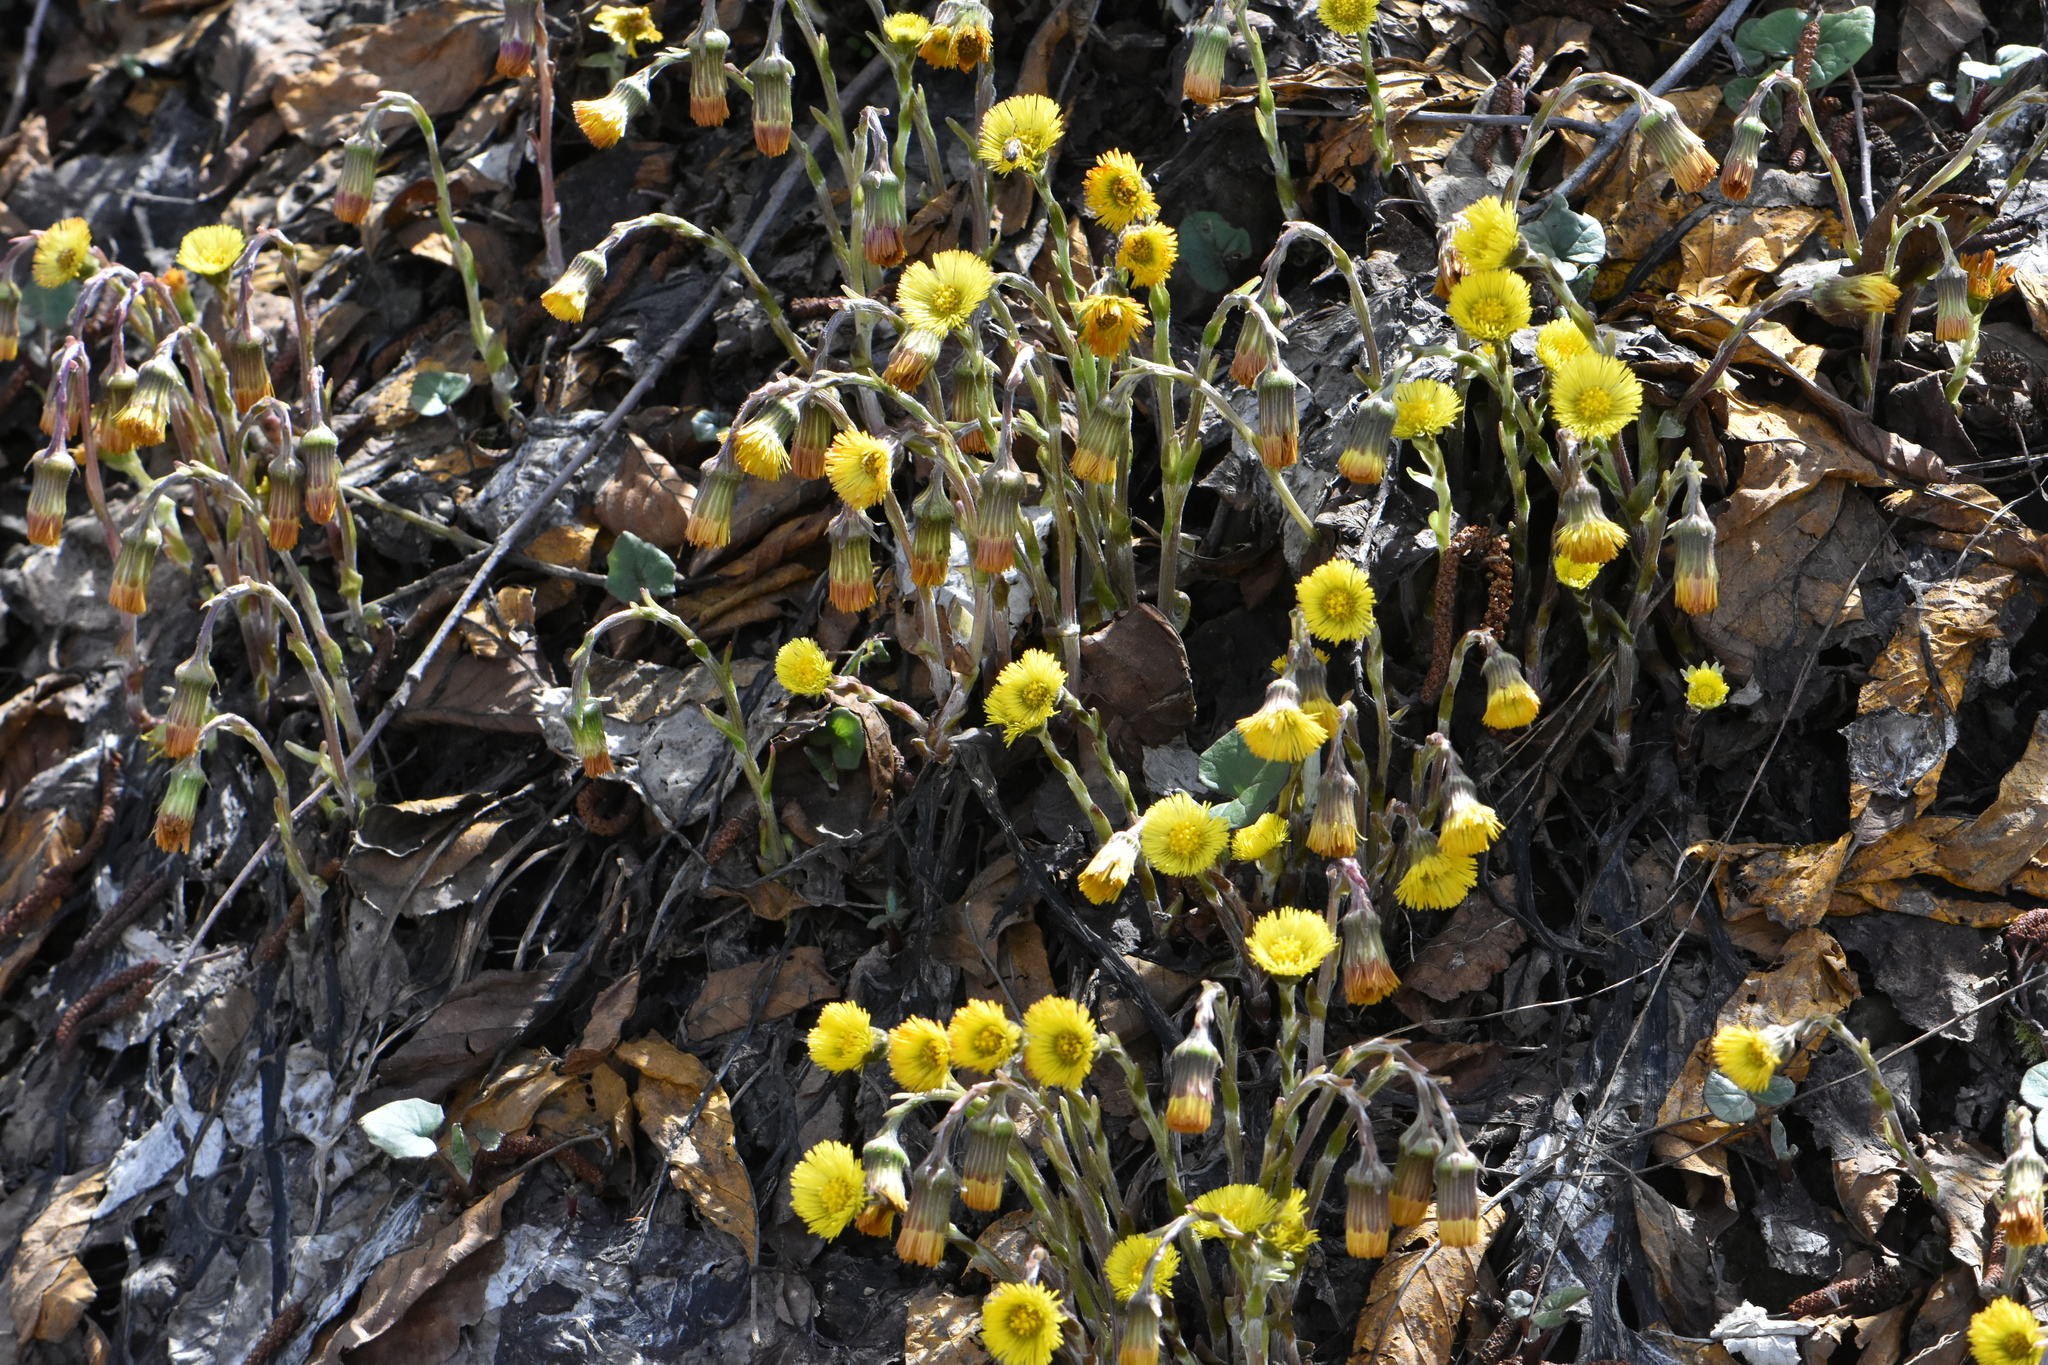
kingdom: Plantae
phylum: Tracheophyta
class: Magnoliopsida
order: Asterales
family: Asteraceae
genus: Tussilago
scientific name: Tussilago farfara
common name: Coltsfoot
